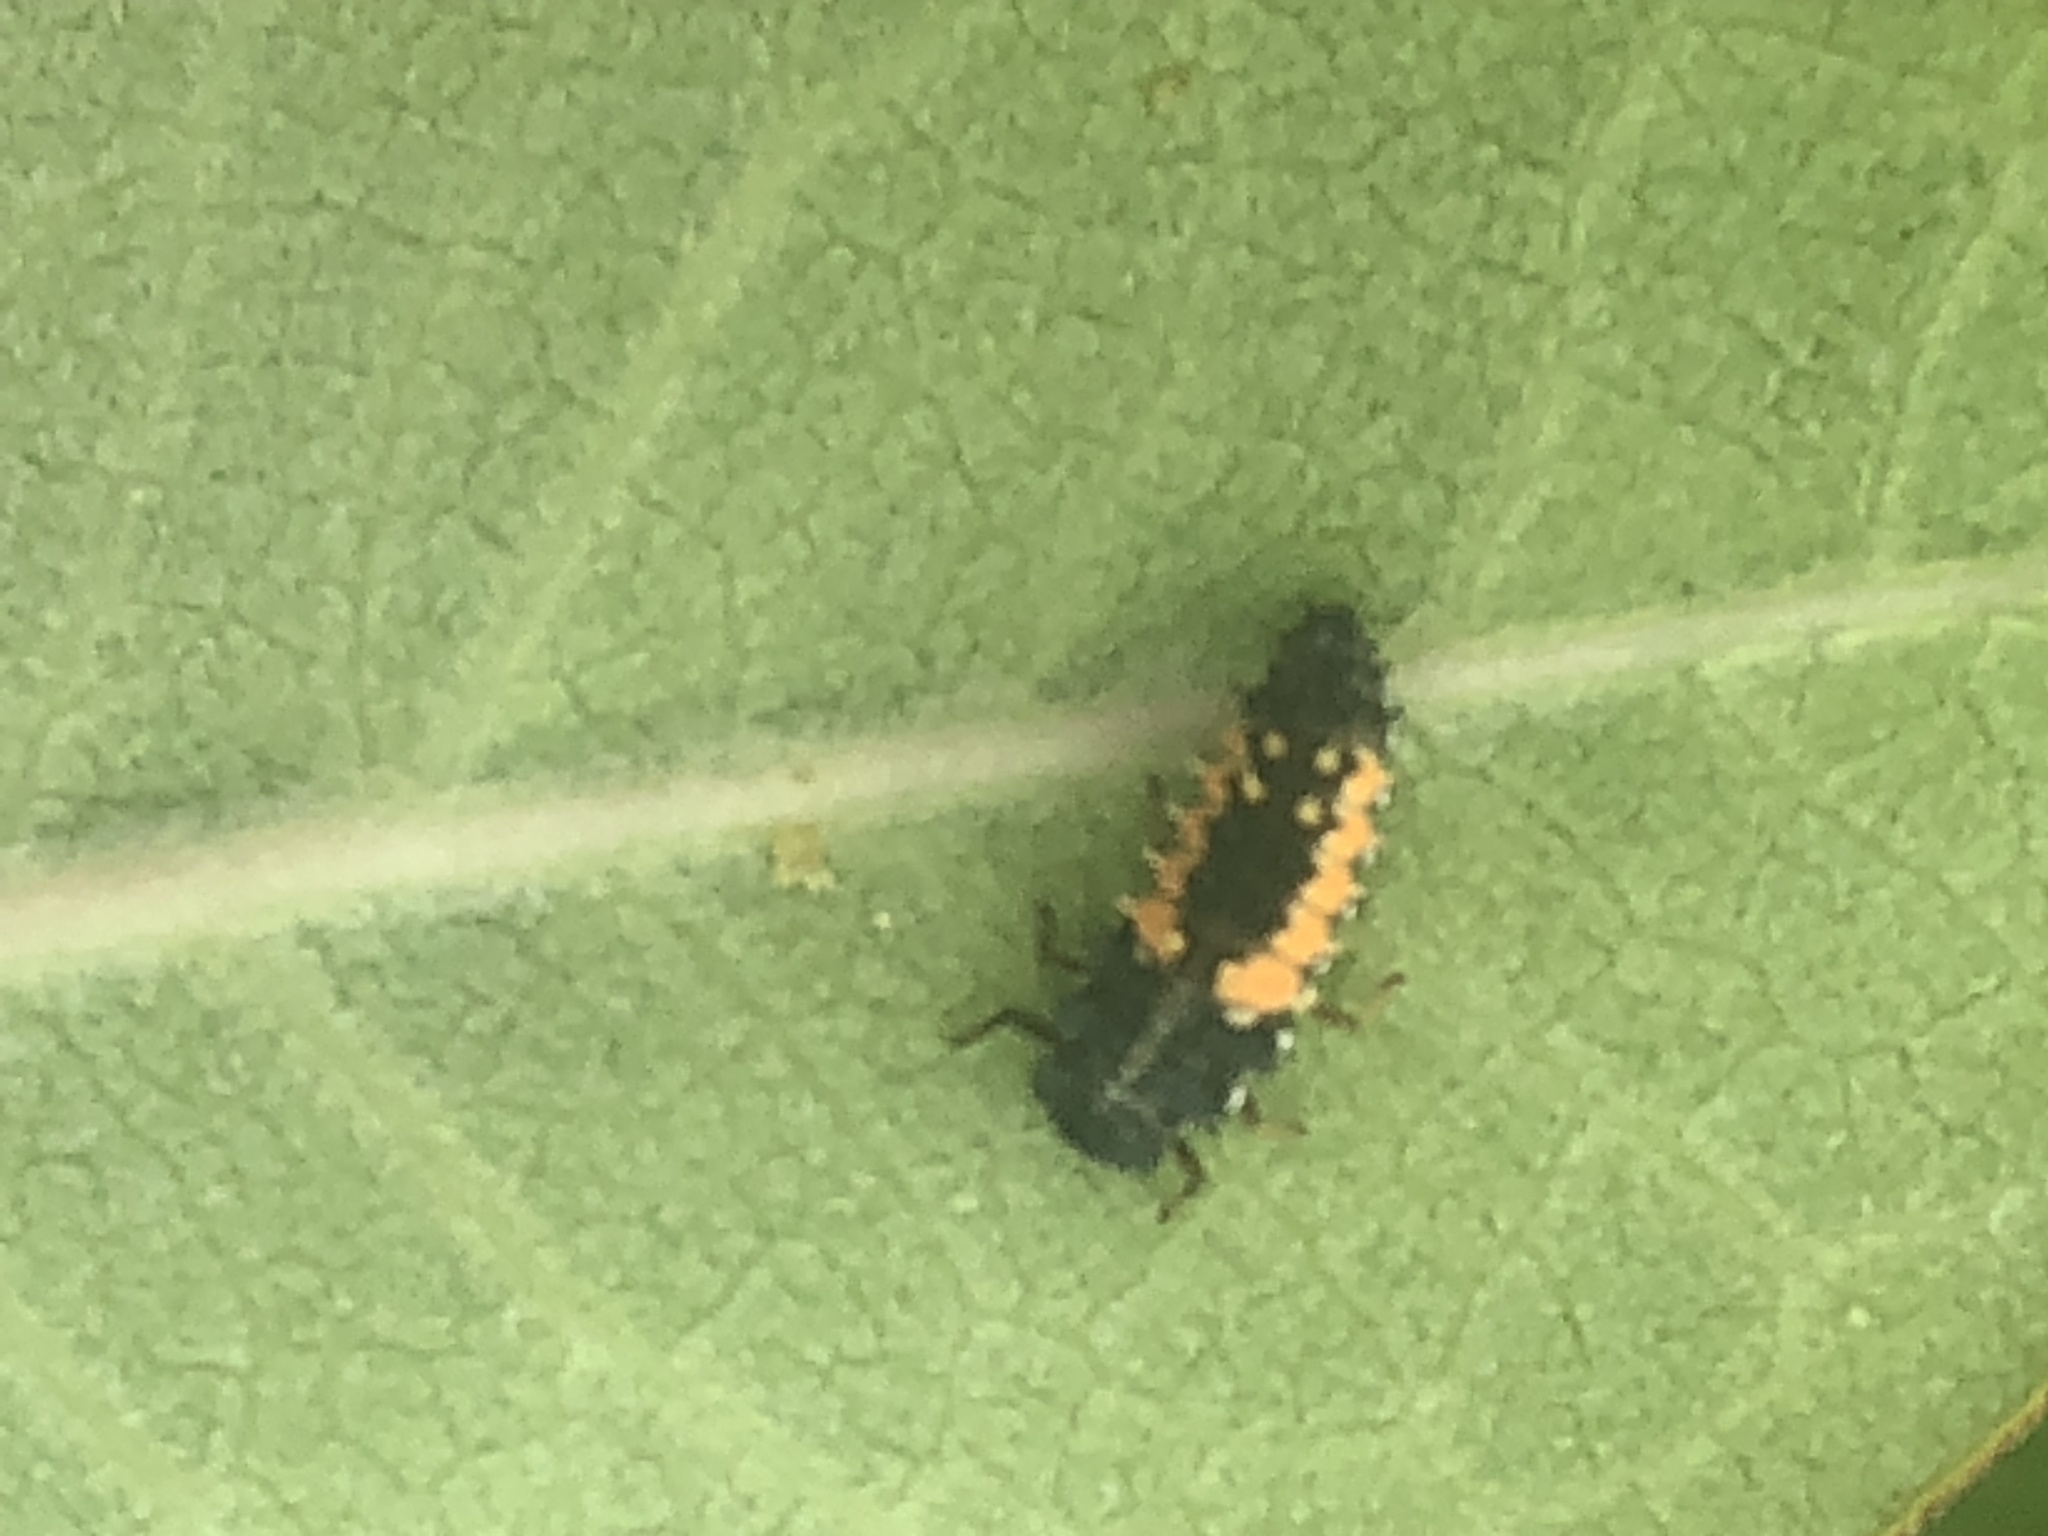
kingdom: Animalia
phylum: Arthropoda
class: Insecta
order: Coleoptera
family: Coccinellidae
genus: Harmonia
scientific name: Harmonia axyridis
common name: Harlequin ladybird
